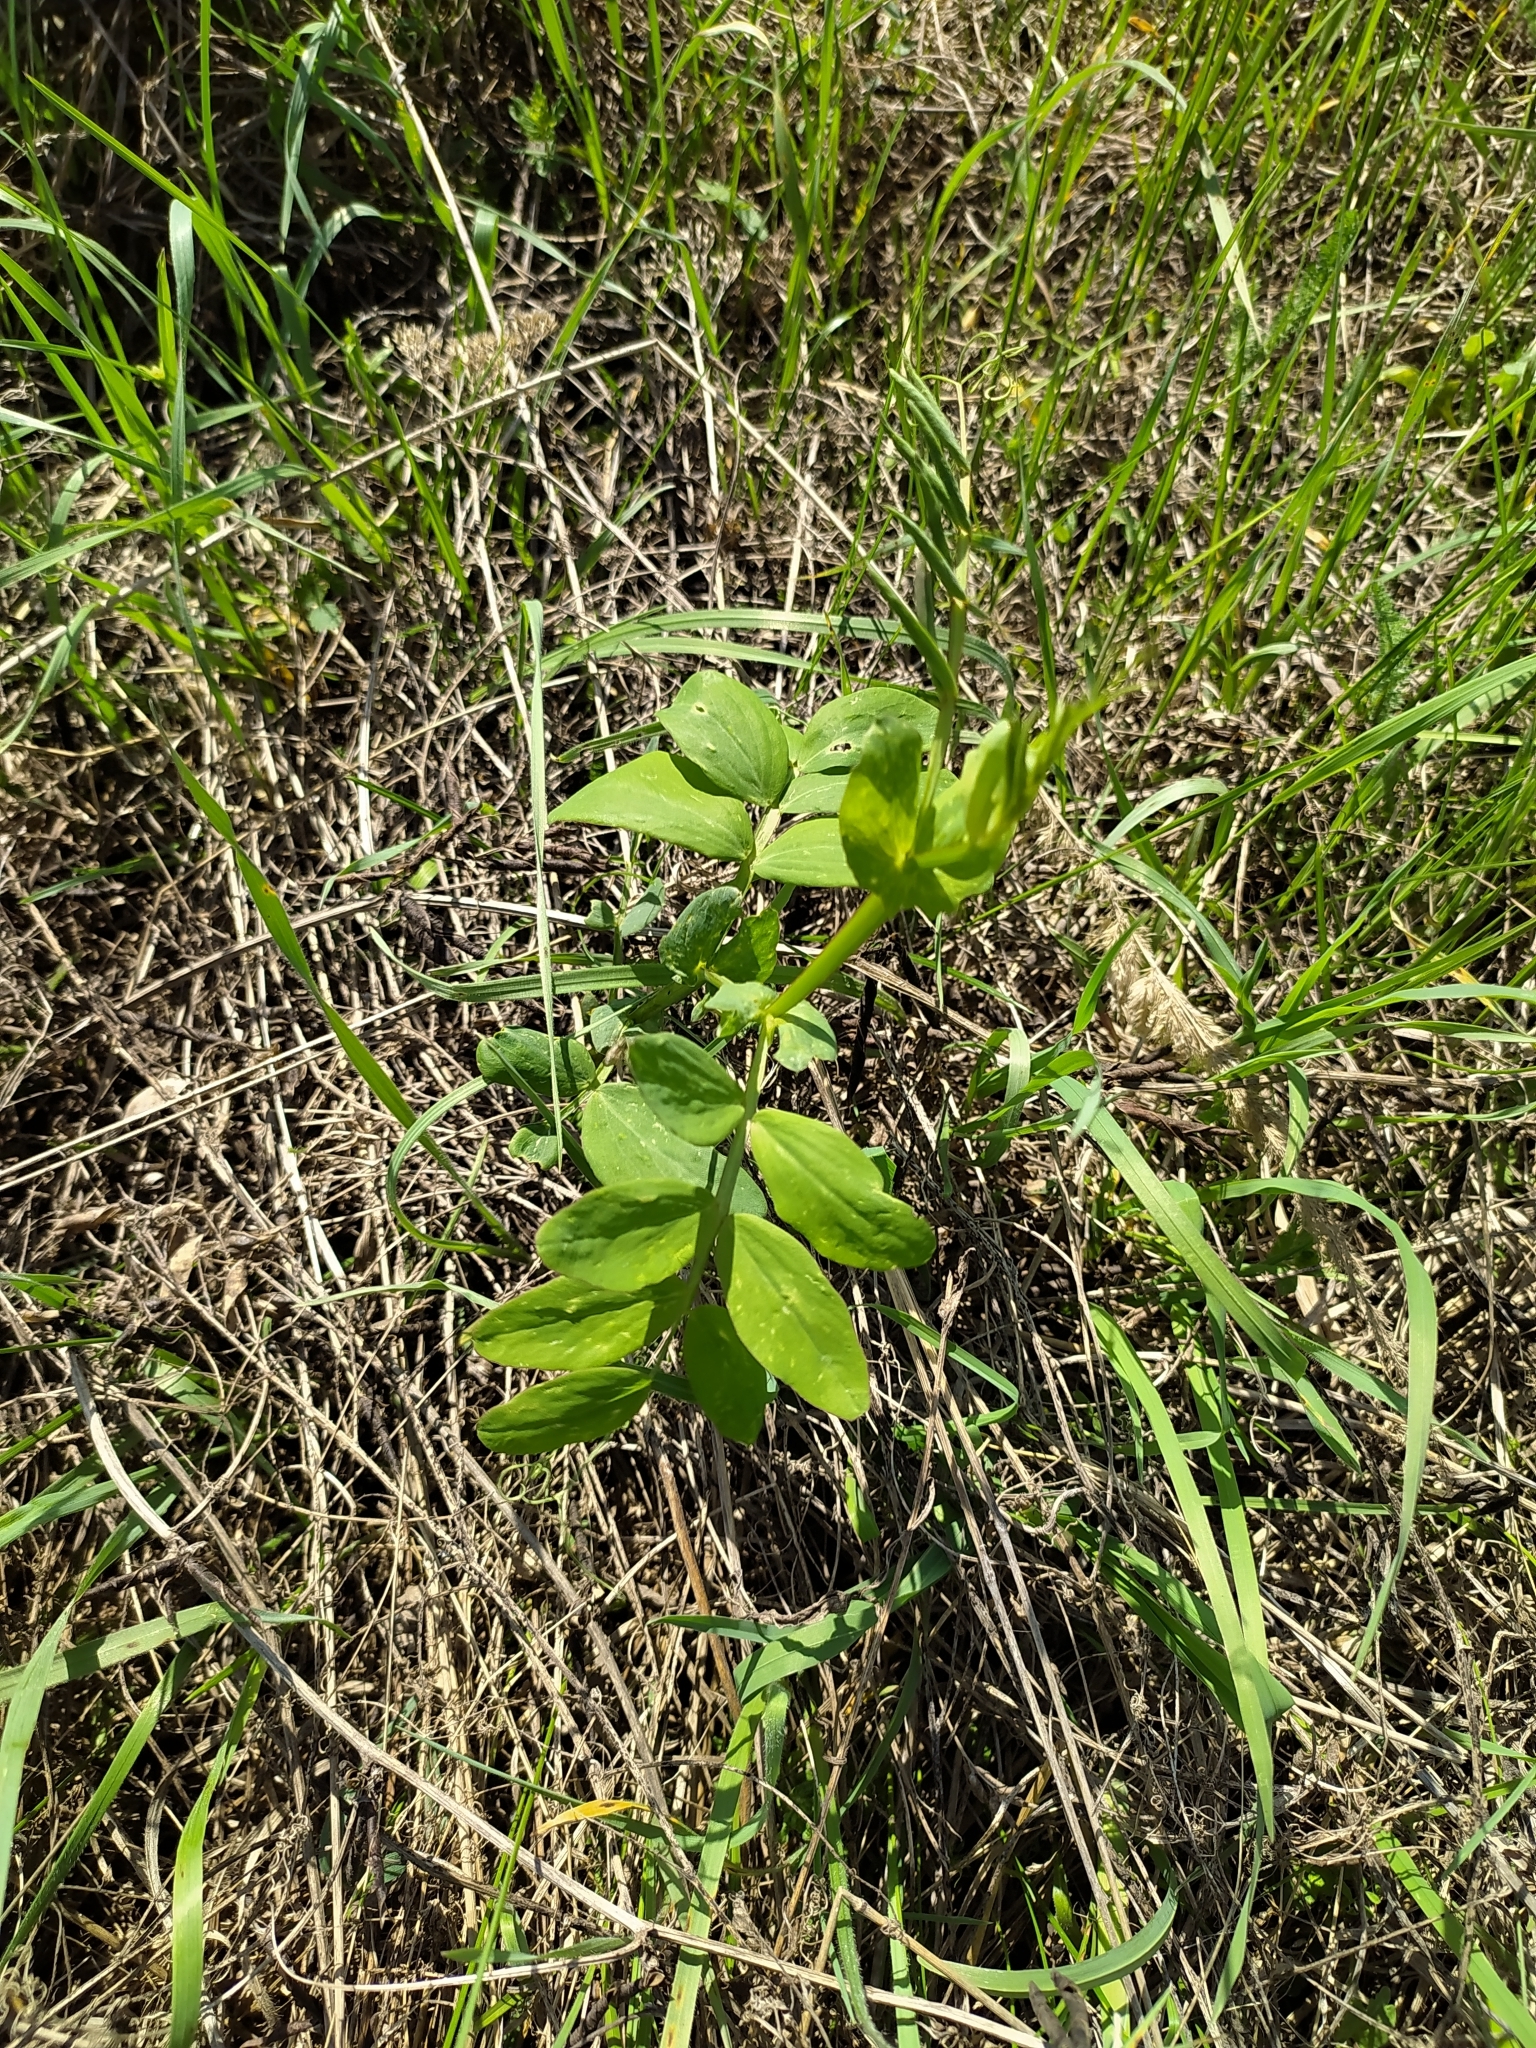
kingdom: Plantae
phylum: Tracheophyta
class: Magnoliopsida
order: Fabales
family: Fabaceae
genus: Lathyrus
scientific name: Lathyrus pisiformis
